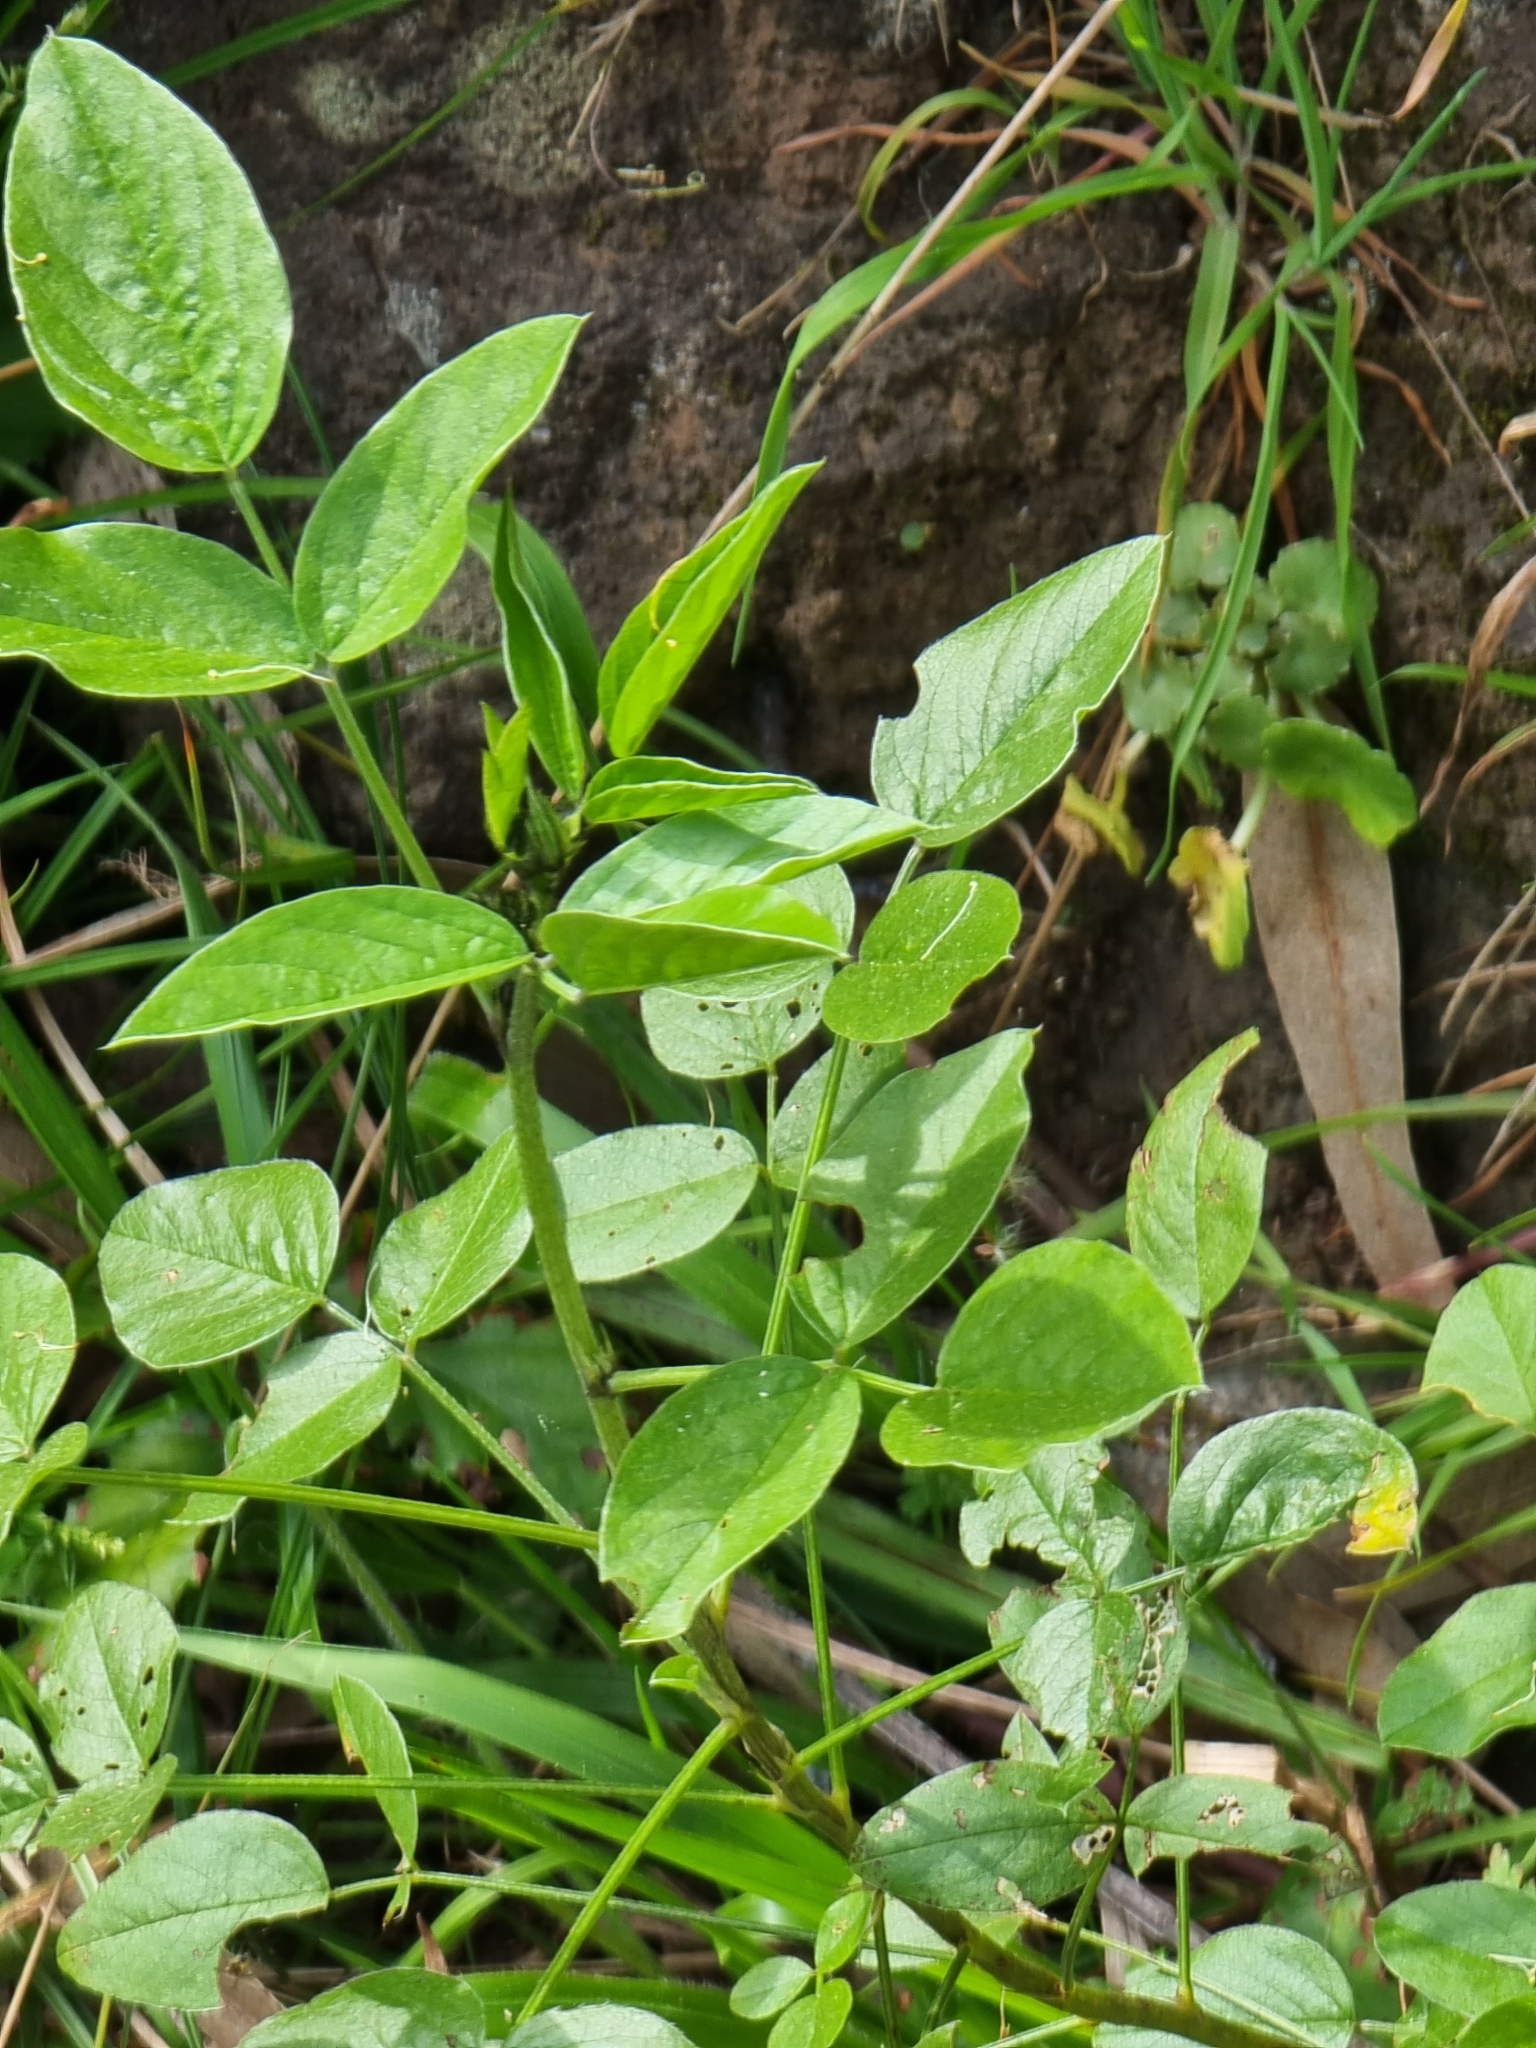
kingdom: Plantae
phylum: Tracheophyta
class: Magnoliopsida
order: Fabales
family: Fabaceae
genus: Bituminaria
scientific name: Bituminaria bituminosa
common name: Arabian pea
